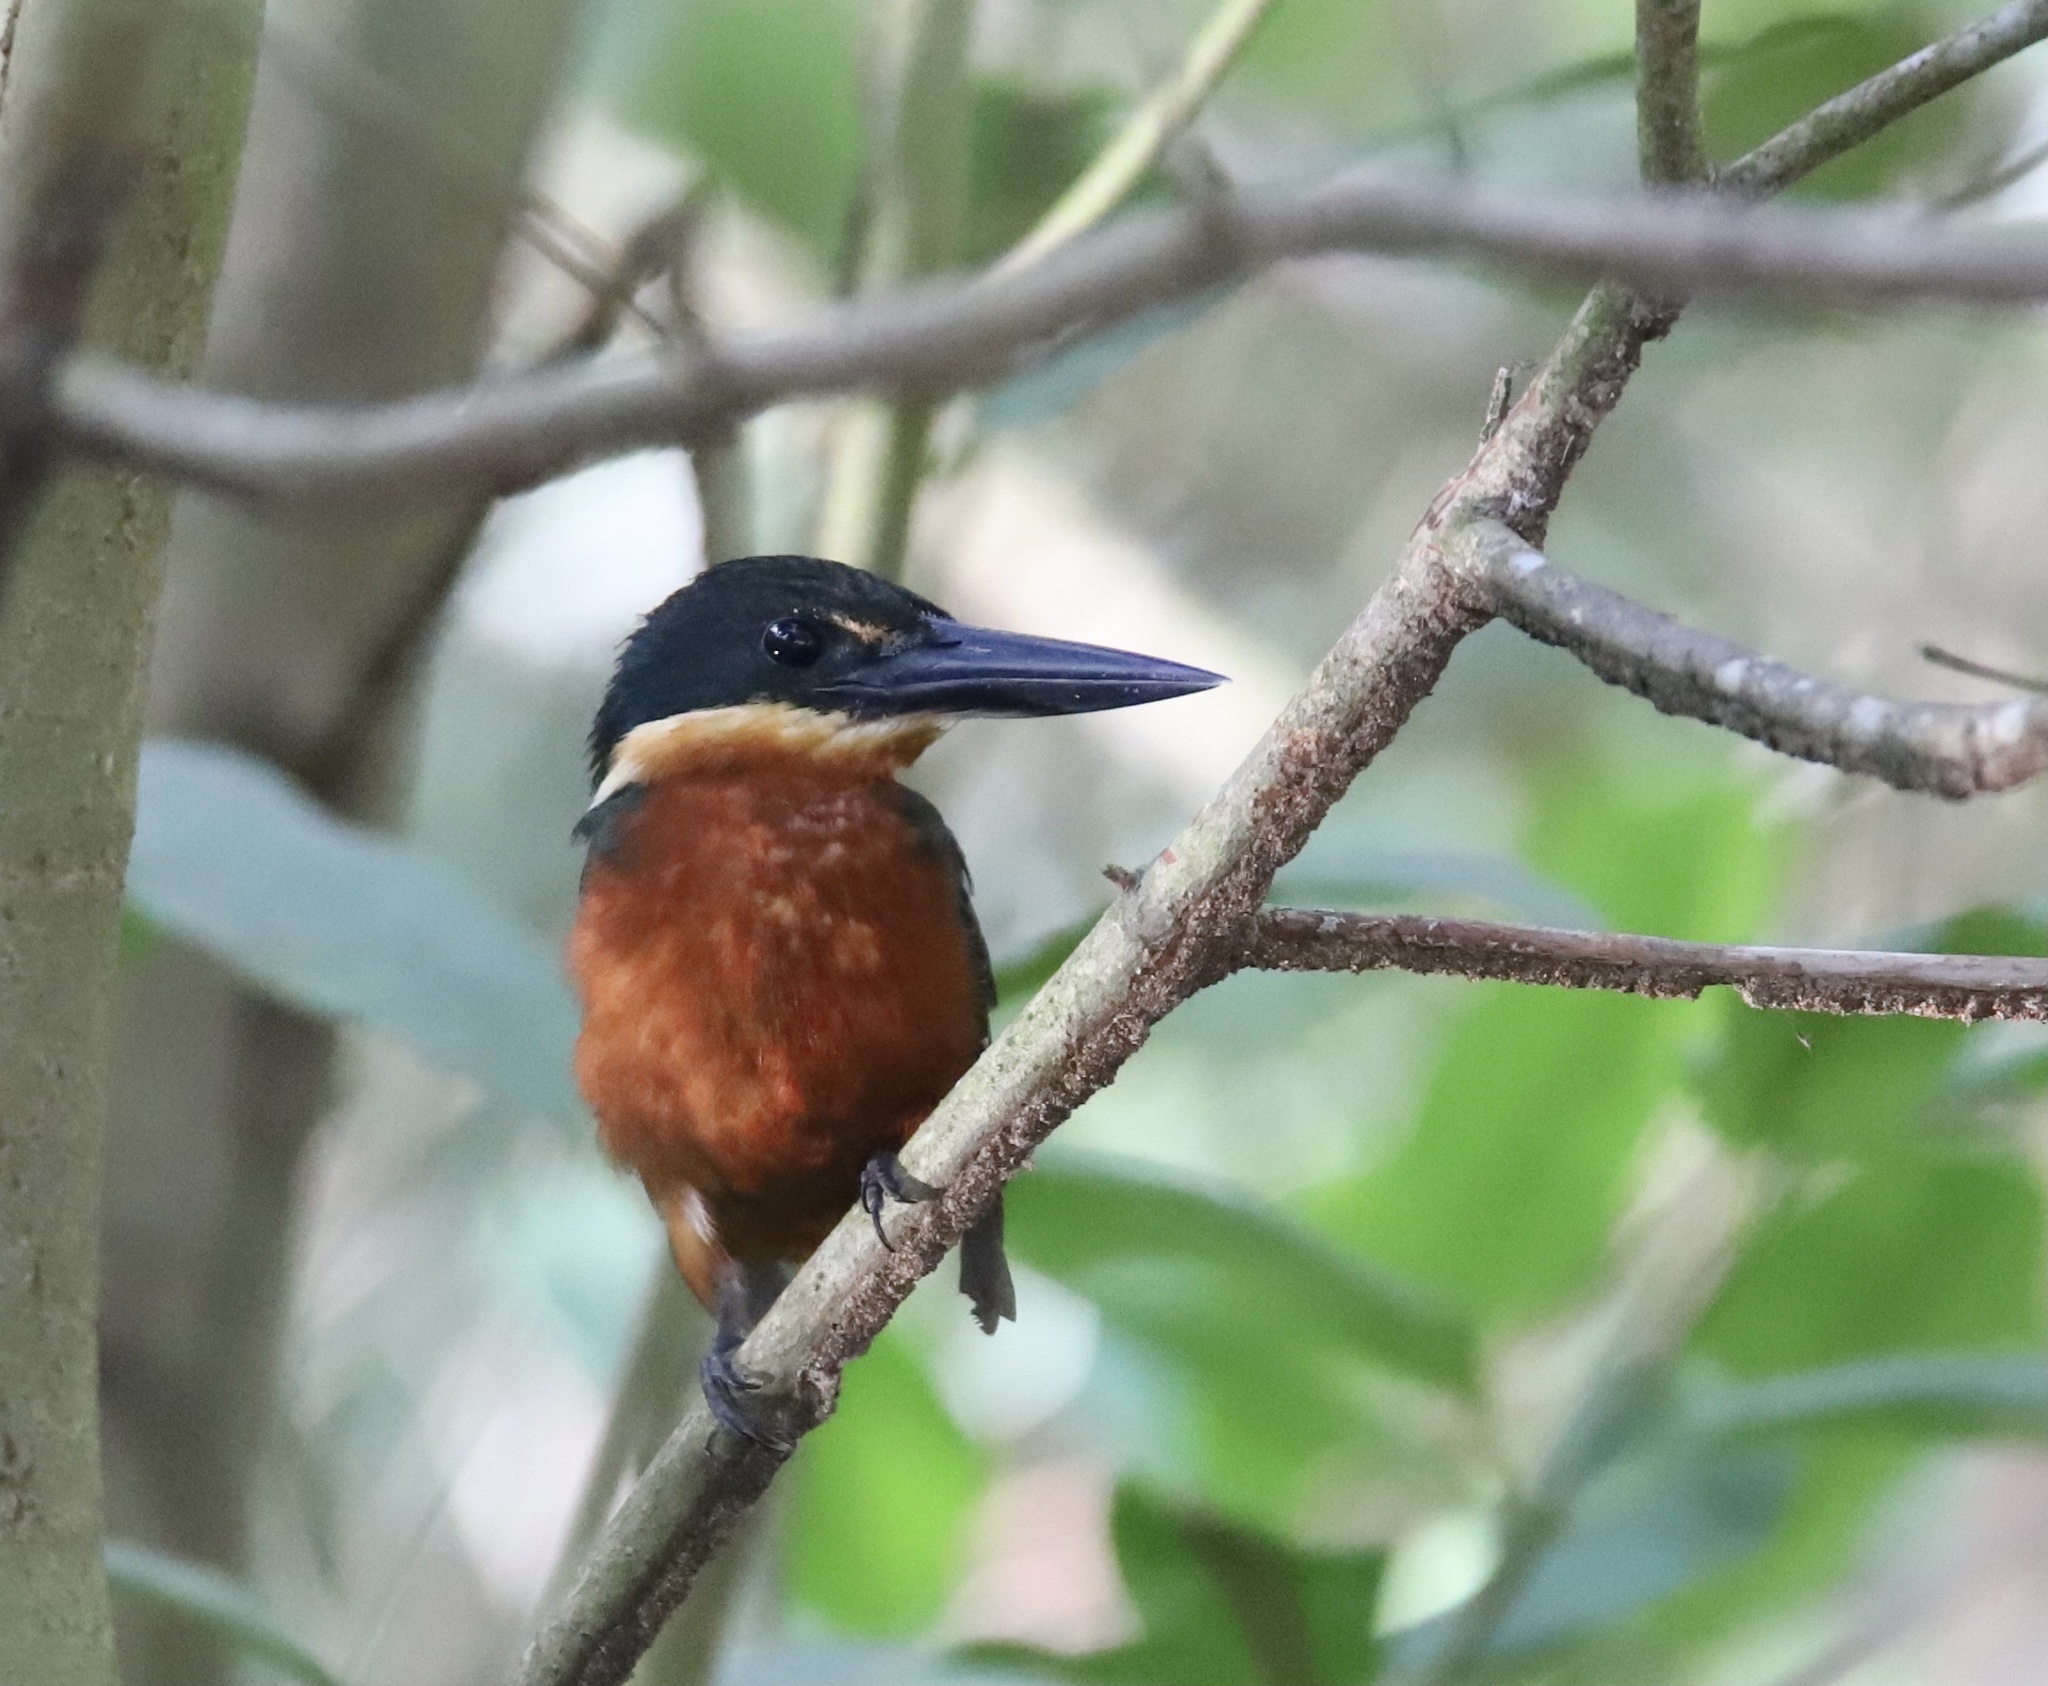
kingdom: Animalia
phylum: Chordata
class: Aves
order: Coraciiformes
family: Alcedinidae
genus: Chloroceryle
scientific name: Chloroceryle inda
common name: Green-and-rufous kingfisher
